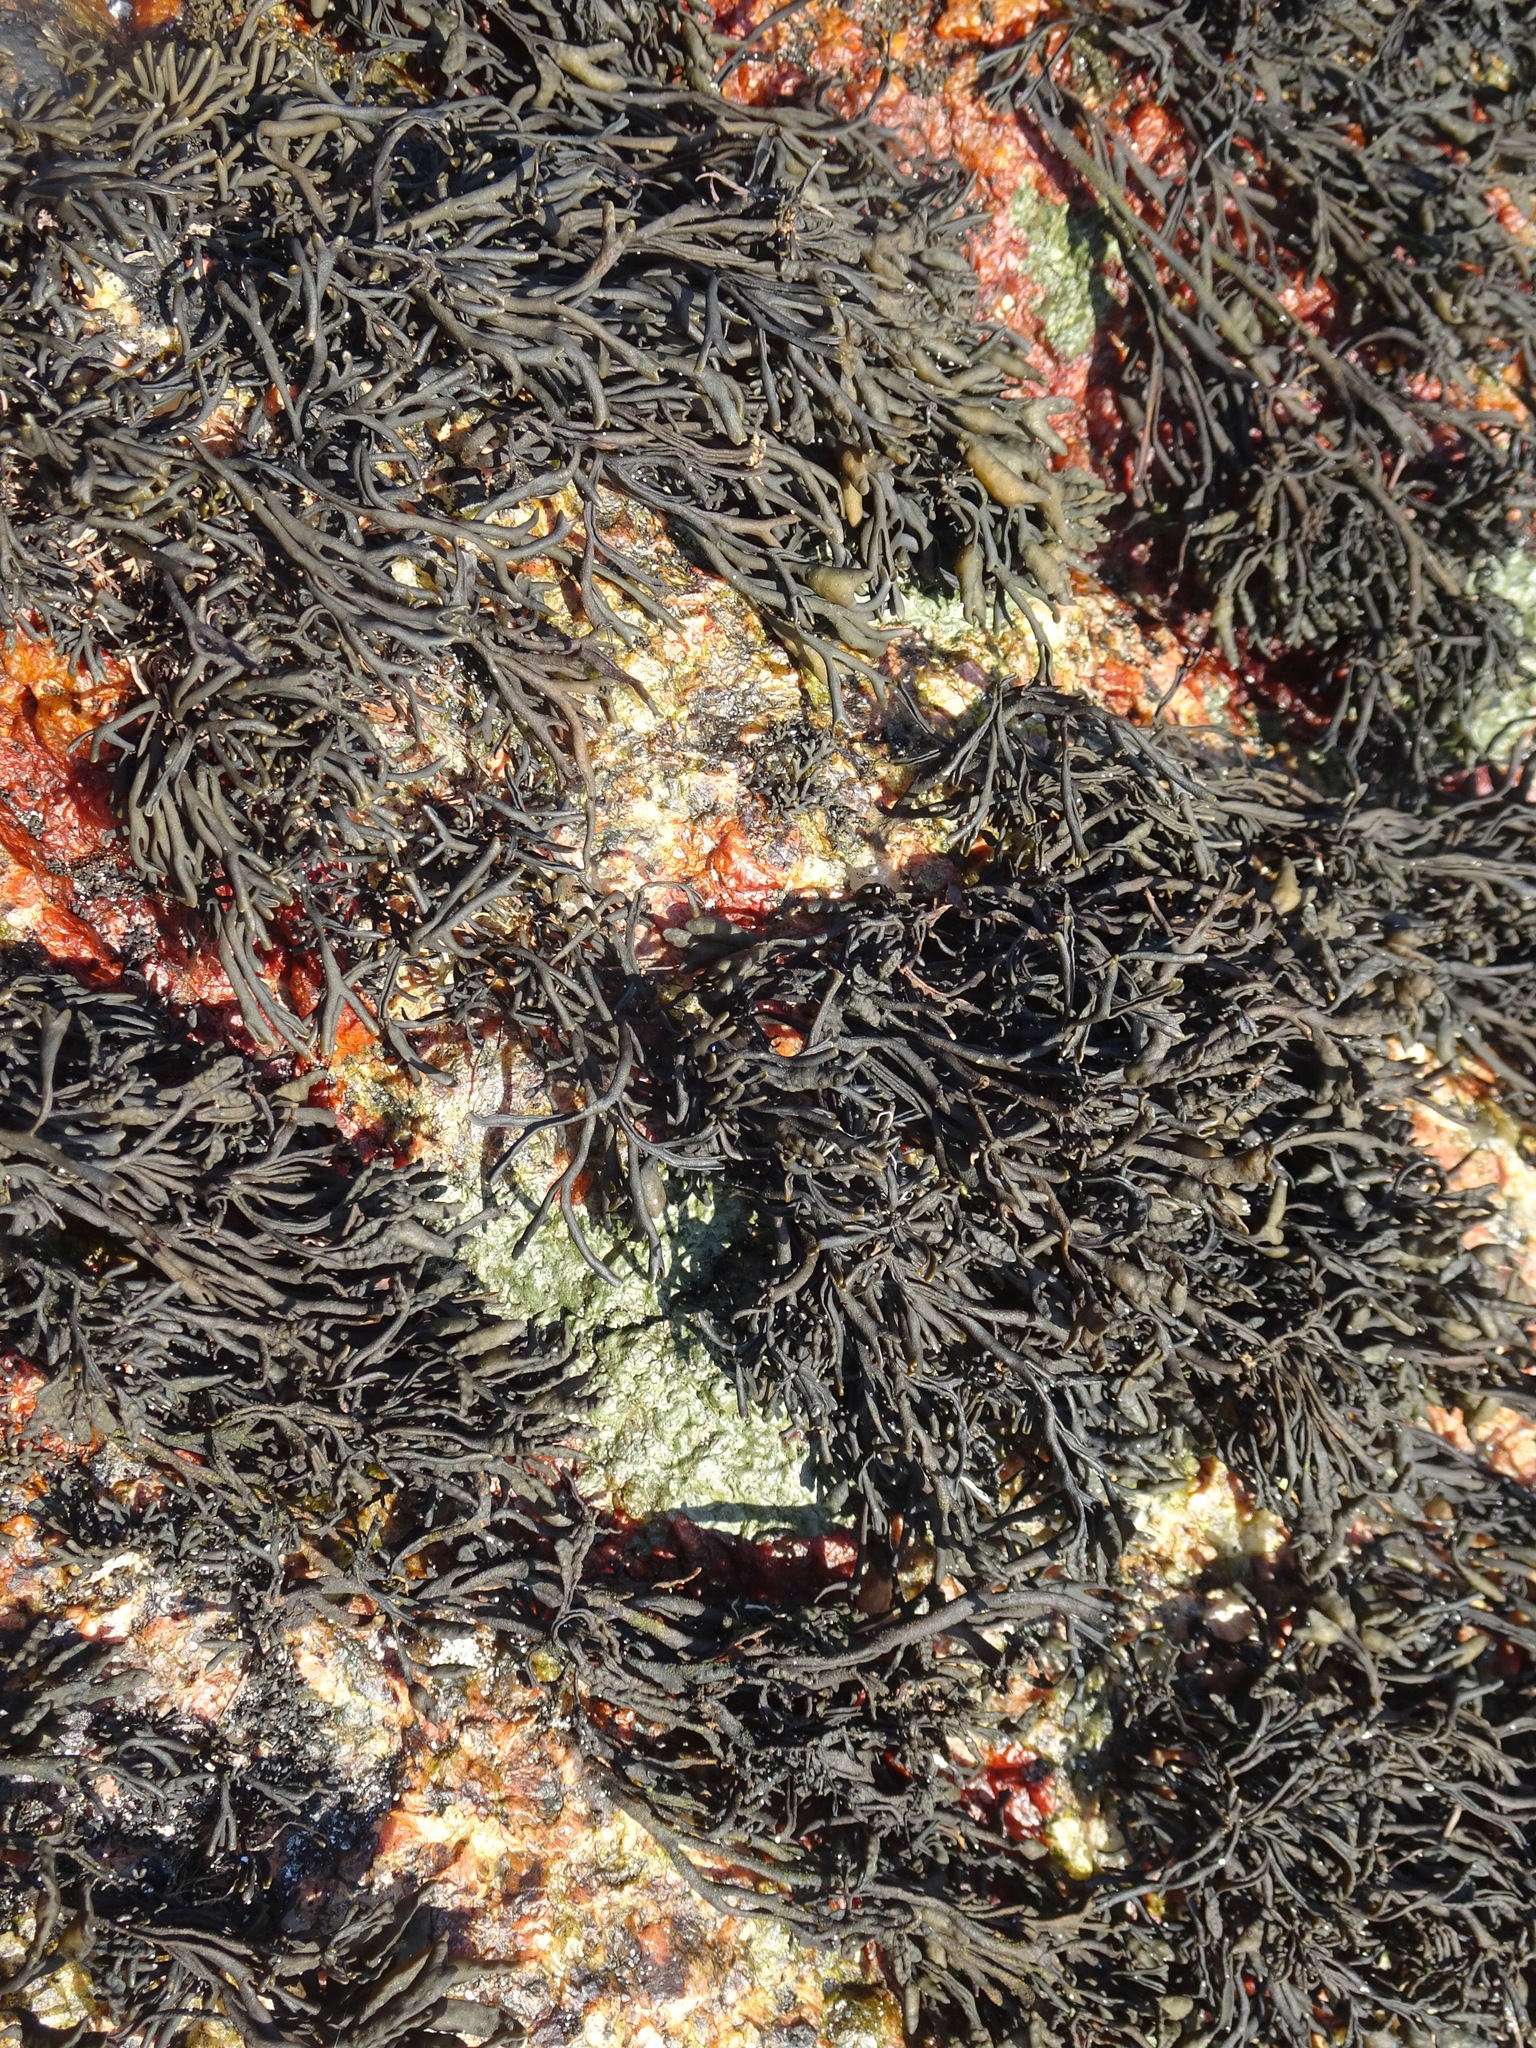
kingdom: Chromista
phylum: Ochrophyta
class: Phaeophyceae
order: Fucales
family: Fucaceae
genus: Pelvetia
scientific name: Pelvetia canaliculata
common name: Channelled wrack
